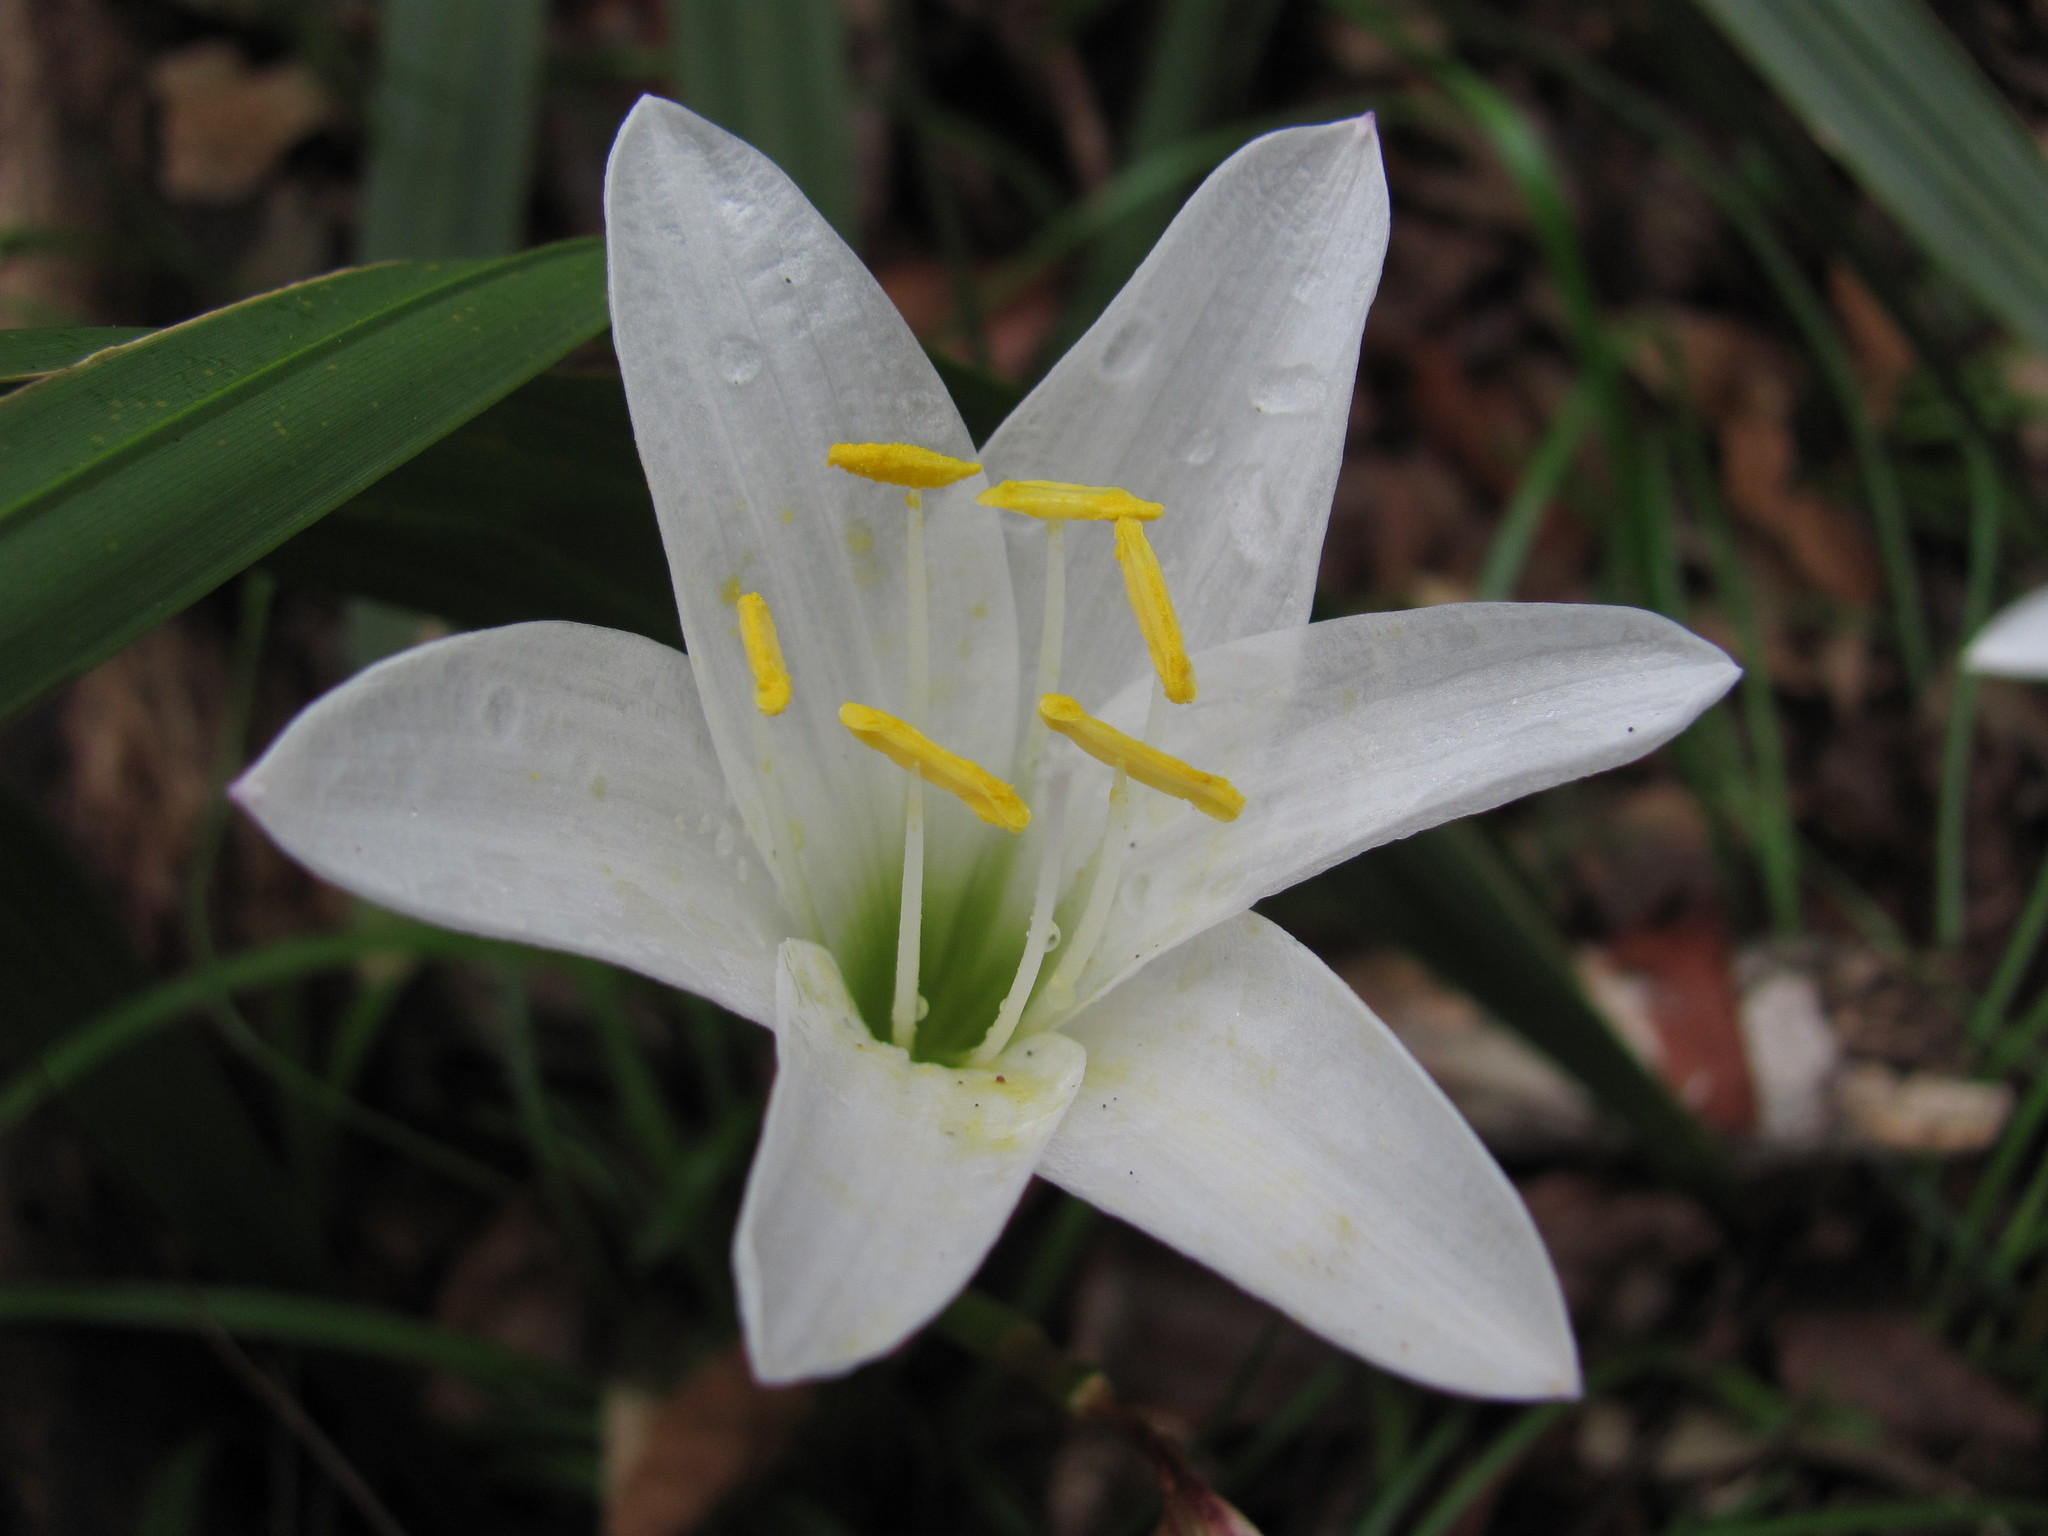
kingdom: Plantae
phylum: Tracheophyta
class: Liliopsida
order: Asparagales
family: Amaryllidaceae
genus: Zephyranthes
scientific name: Zephyranthes atamasco
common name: Atamasco lily
